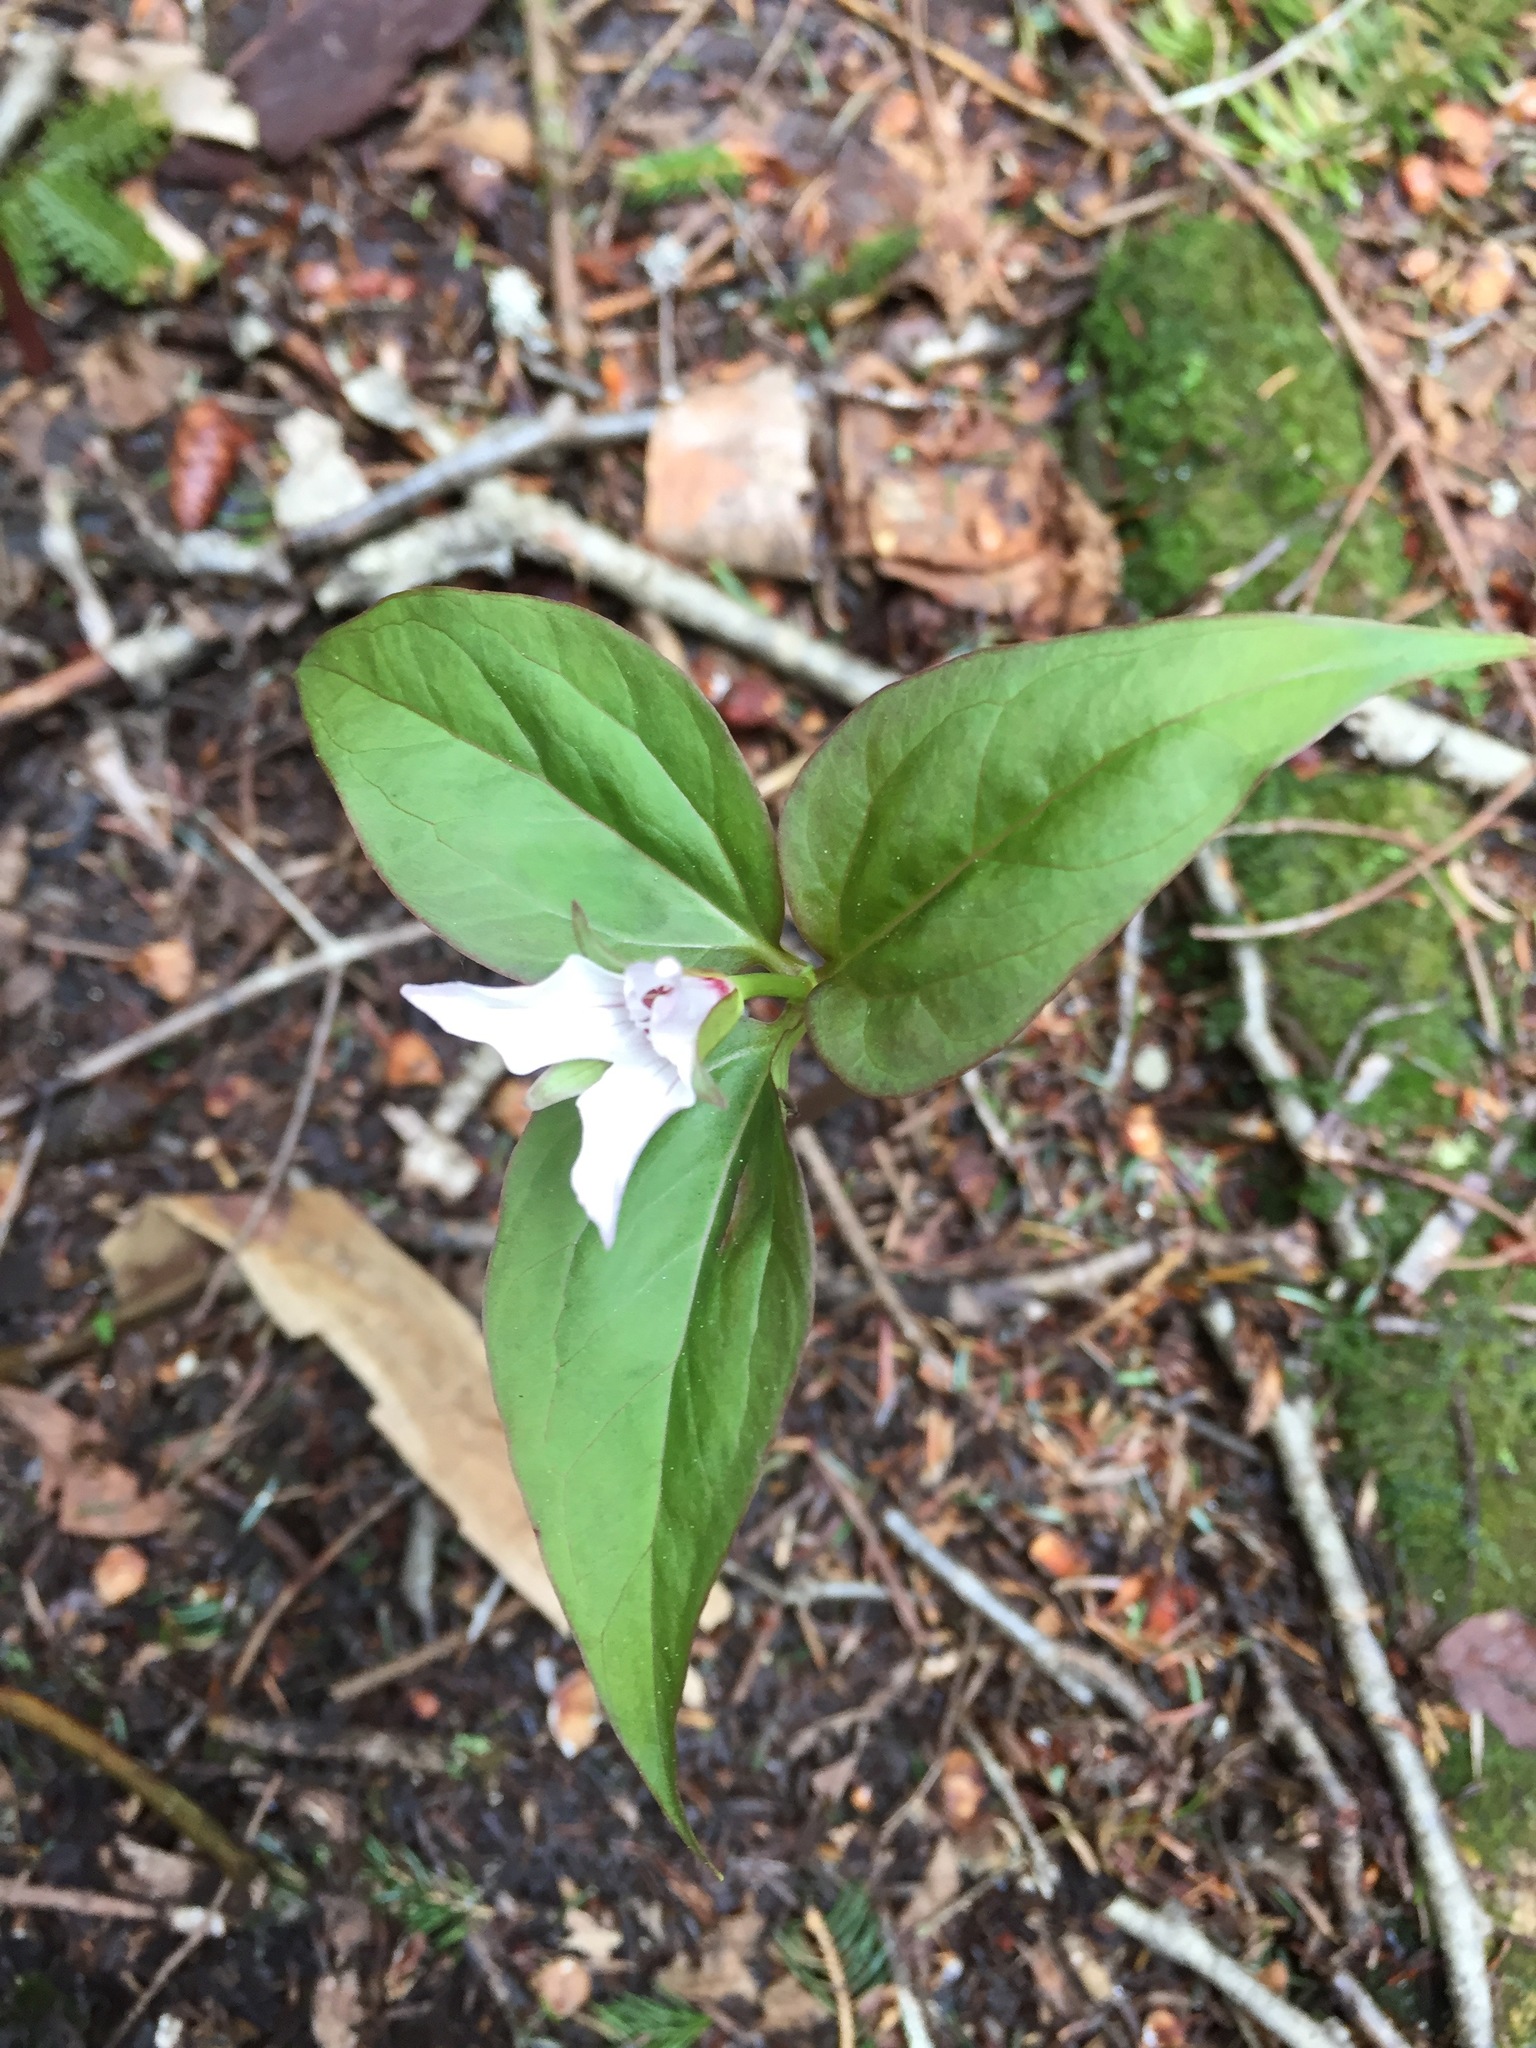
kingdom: Plantae
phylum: Tracheophyta
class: Liliopsida
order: Liliales
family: Melanthiaceae
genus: Trillium
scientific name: Trillium undulatum
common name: Paint trillium
